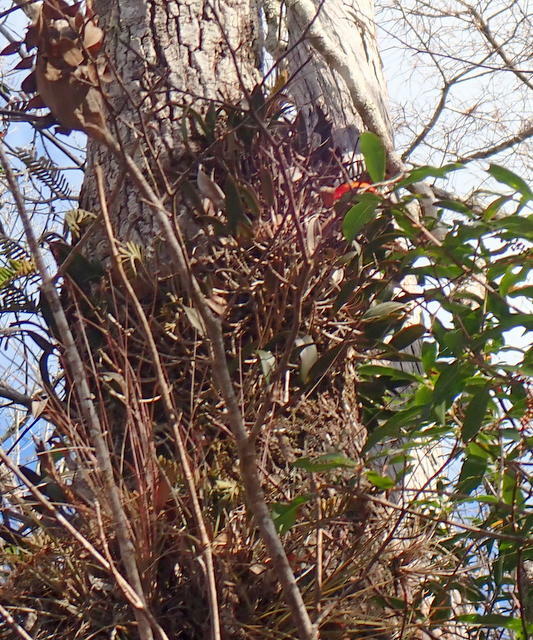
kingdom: Plantae
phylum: Tracheophyta
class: Liliopsida
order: Asparagales
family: Orchidaceae
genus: Epidendrum
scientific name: Epidendrum conopseum
